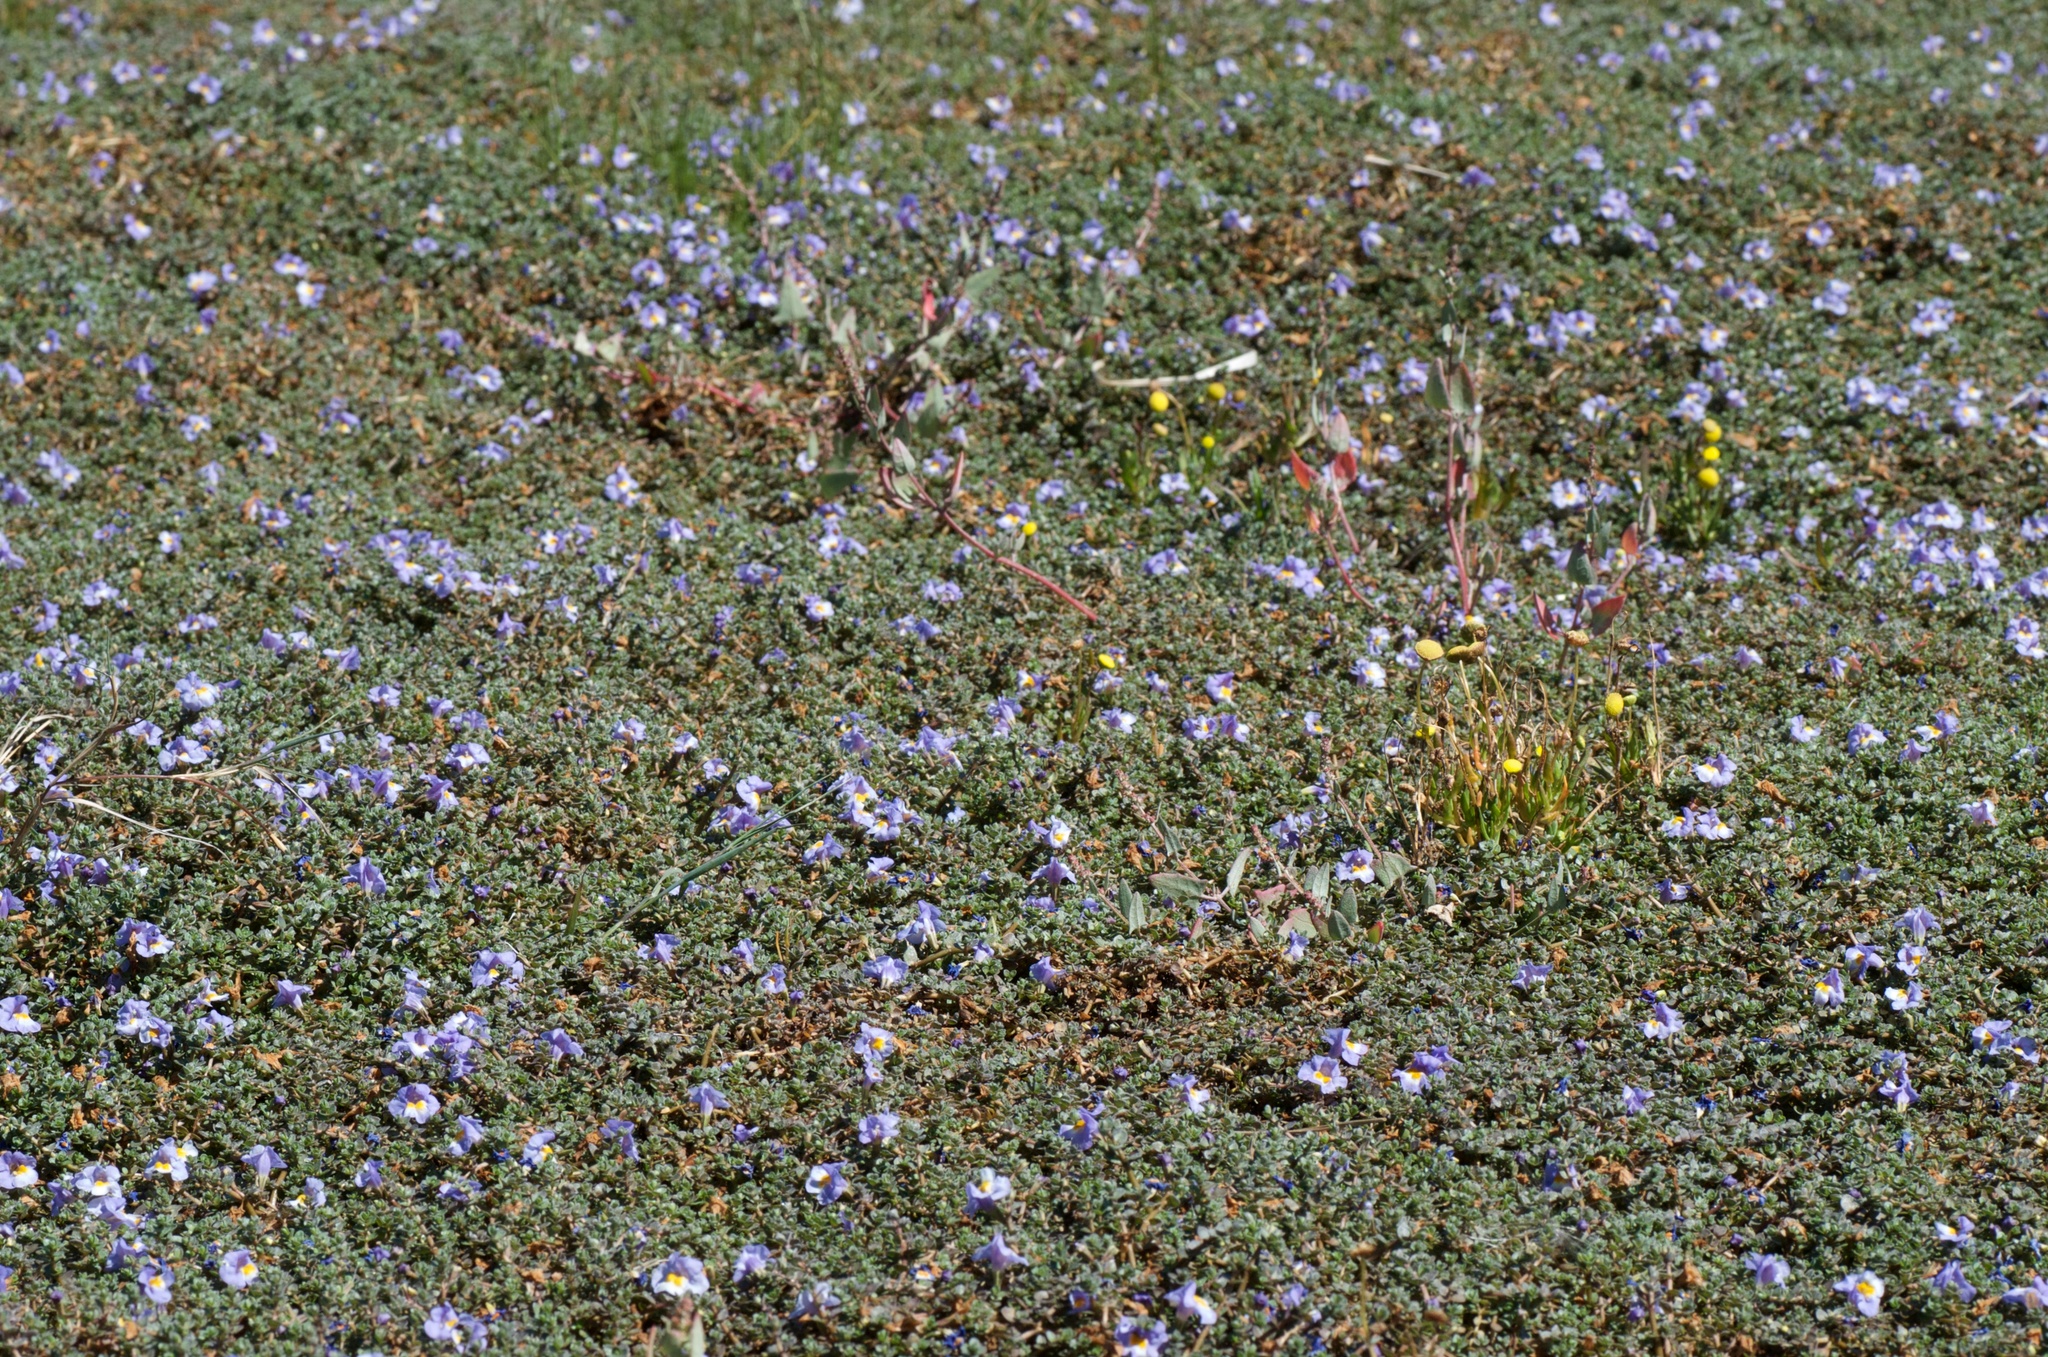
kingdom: Plantae
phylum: Tracheophyta
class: Magnoliopsida
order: Lamiales
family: Phrymaceae
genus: Thyridia
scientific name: Thyridia repens
